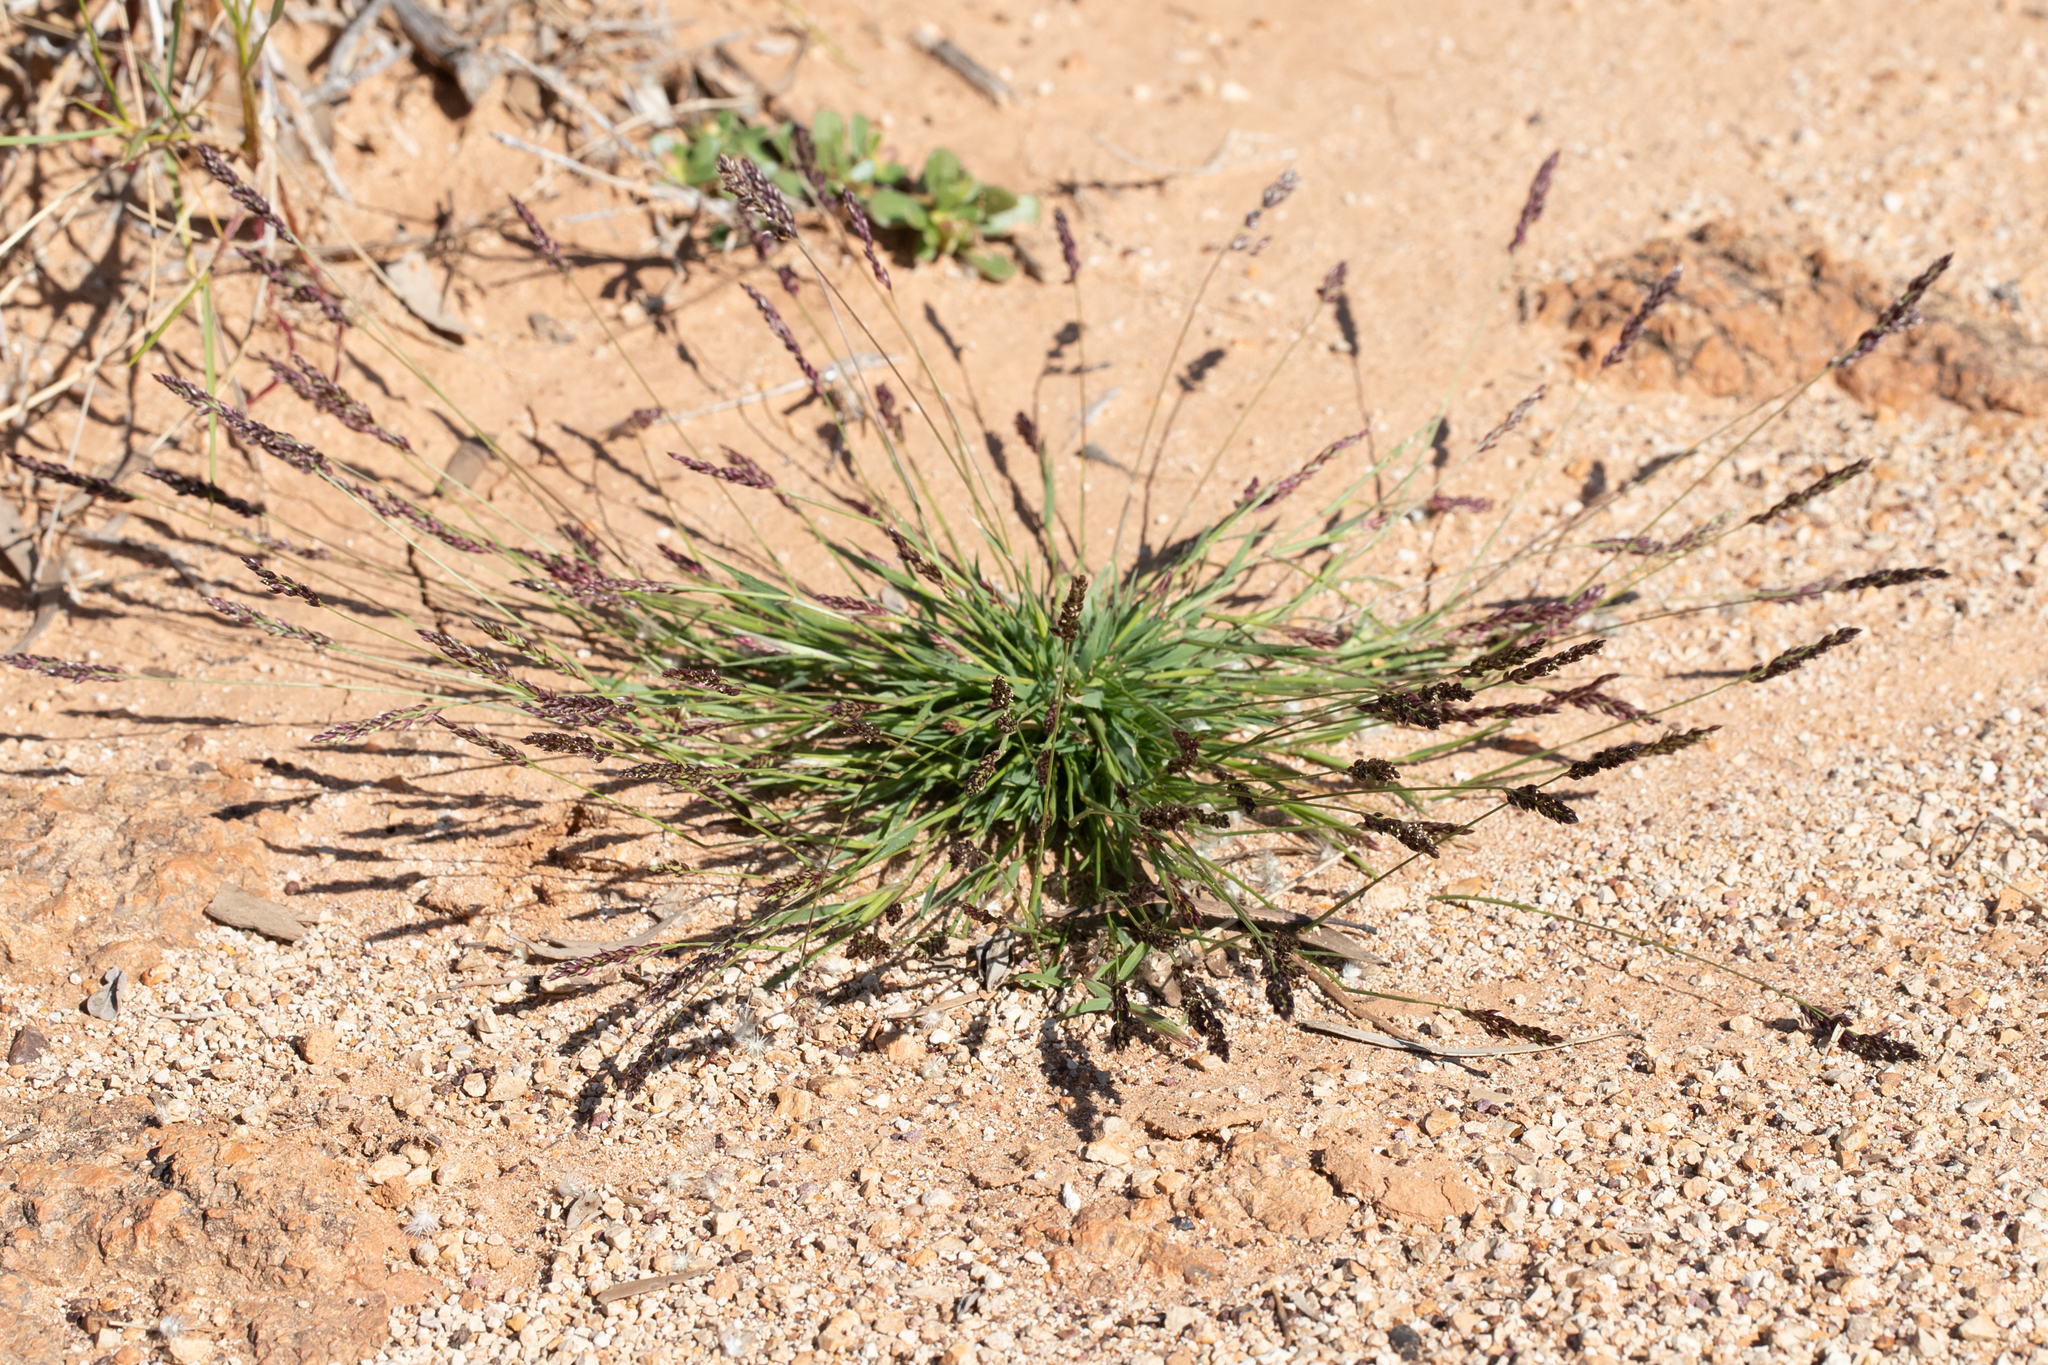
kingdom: Plantae
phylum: Tracheophyta
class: Liliopsida
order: Poales
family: Poaceae
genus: Eriachne
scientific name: Eriachne pulchella
